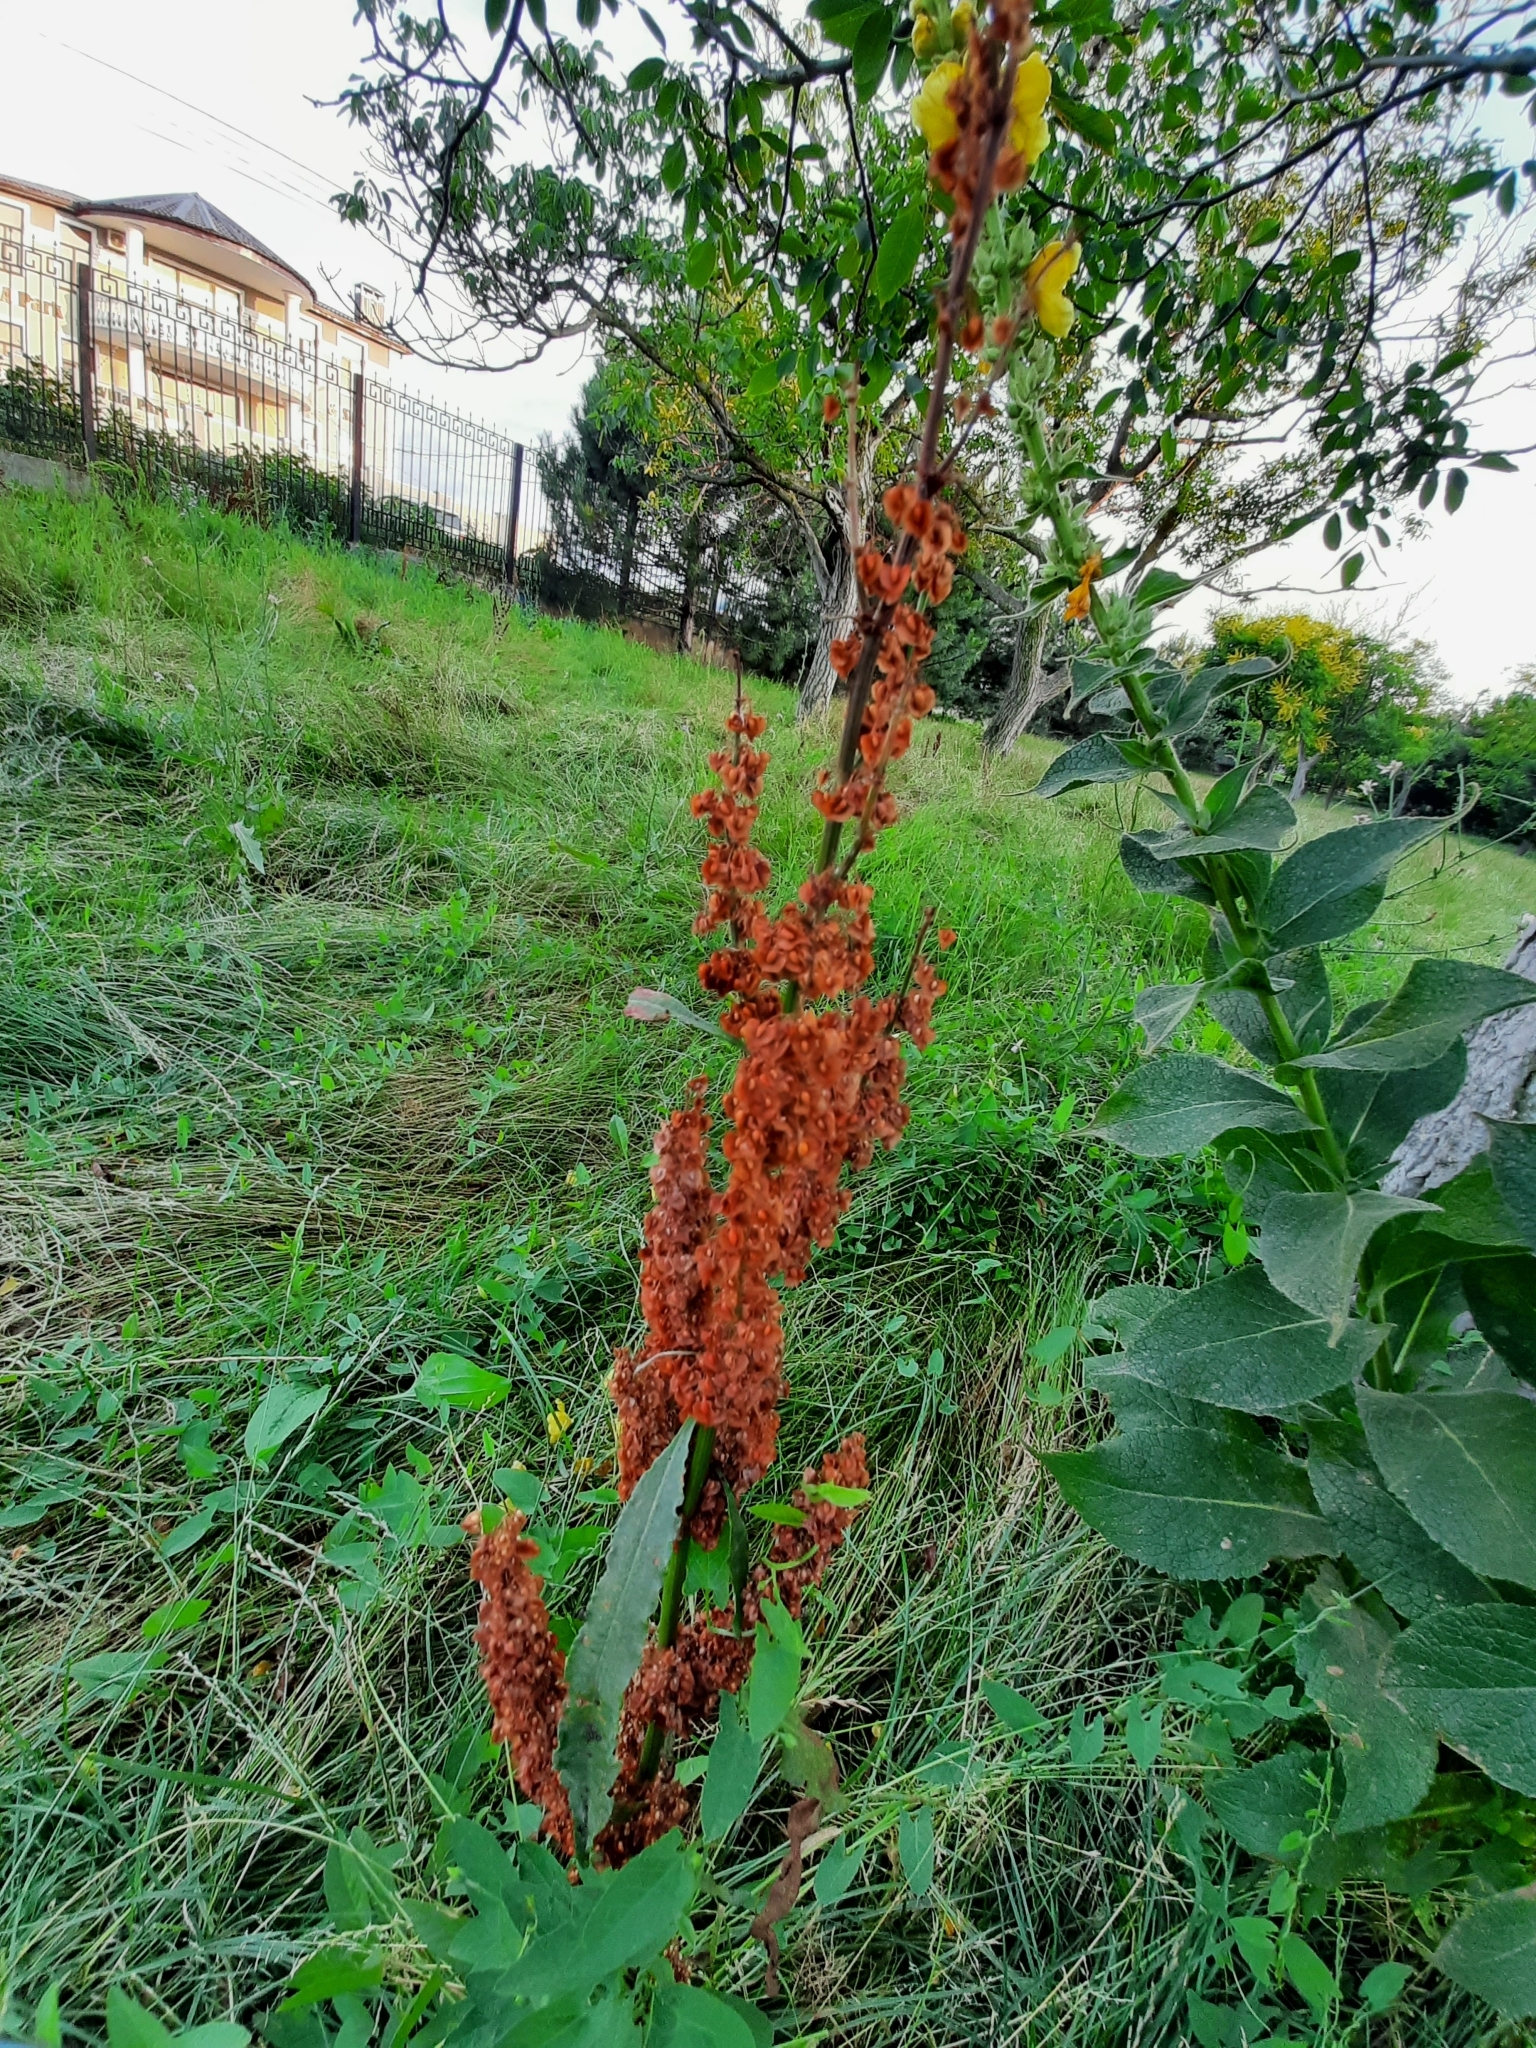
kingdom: Plantae
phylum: Tracheophyta
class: Magnoliopsida
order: Caryophyllales
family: Polygonaceae
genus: Rumex
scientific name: Rumex crispus
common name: Curled dock
